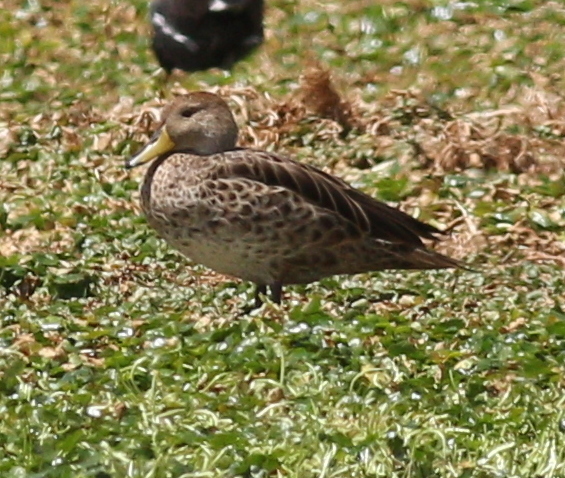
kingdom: Animalia
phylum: Chordata
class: Aves
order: Anseriformes
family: Anatidae
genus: Anas
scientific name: Anas georgica
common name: Yellow-billed pintail
